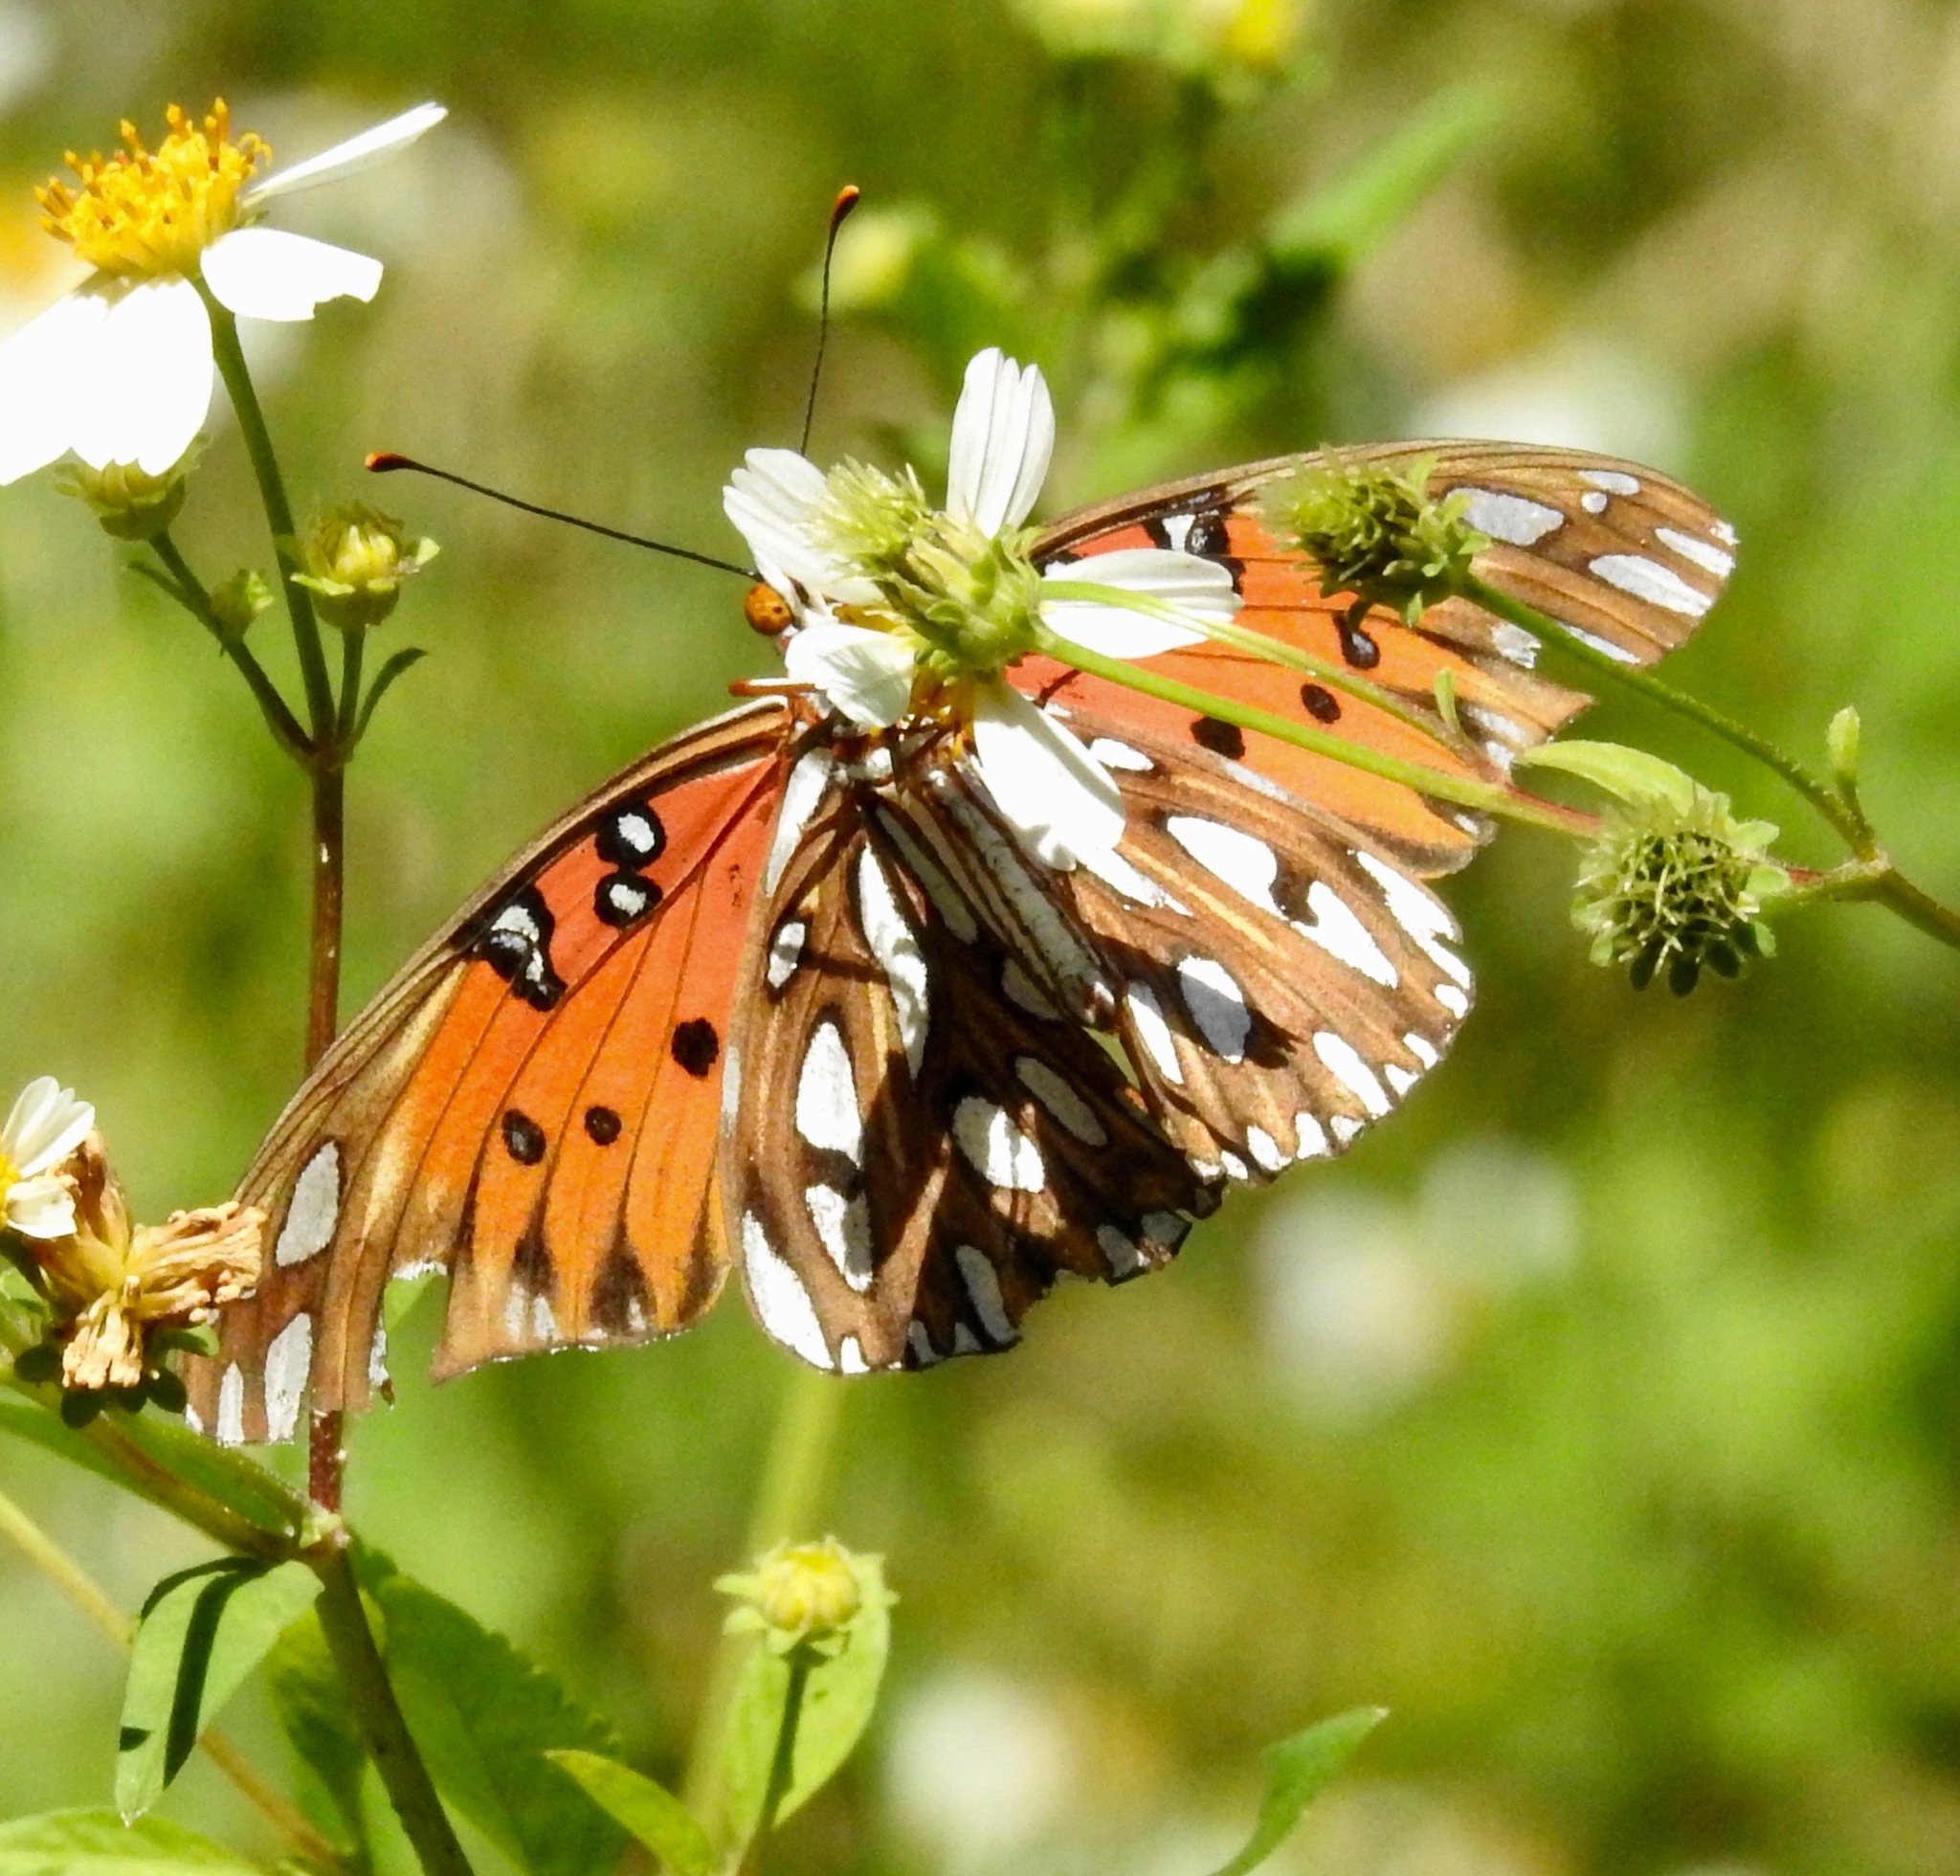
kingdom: Animalia
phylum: Arthropoda
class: Insecta
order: Lepidoptera
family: Nymphalidae
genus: Dione
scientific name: Dione vanillae
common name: Gulf fritillary
